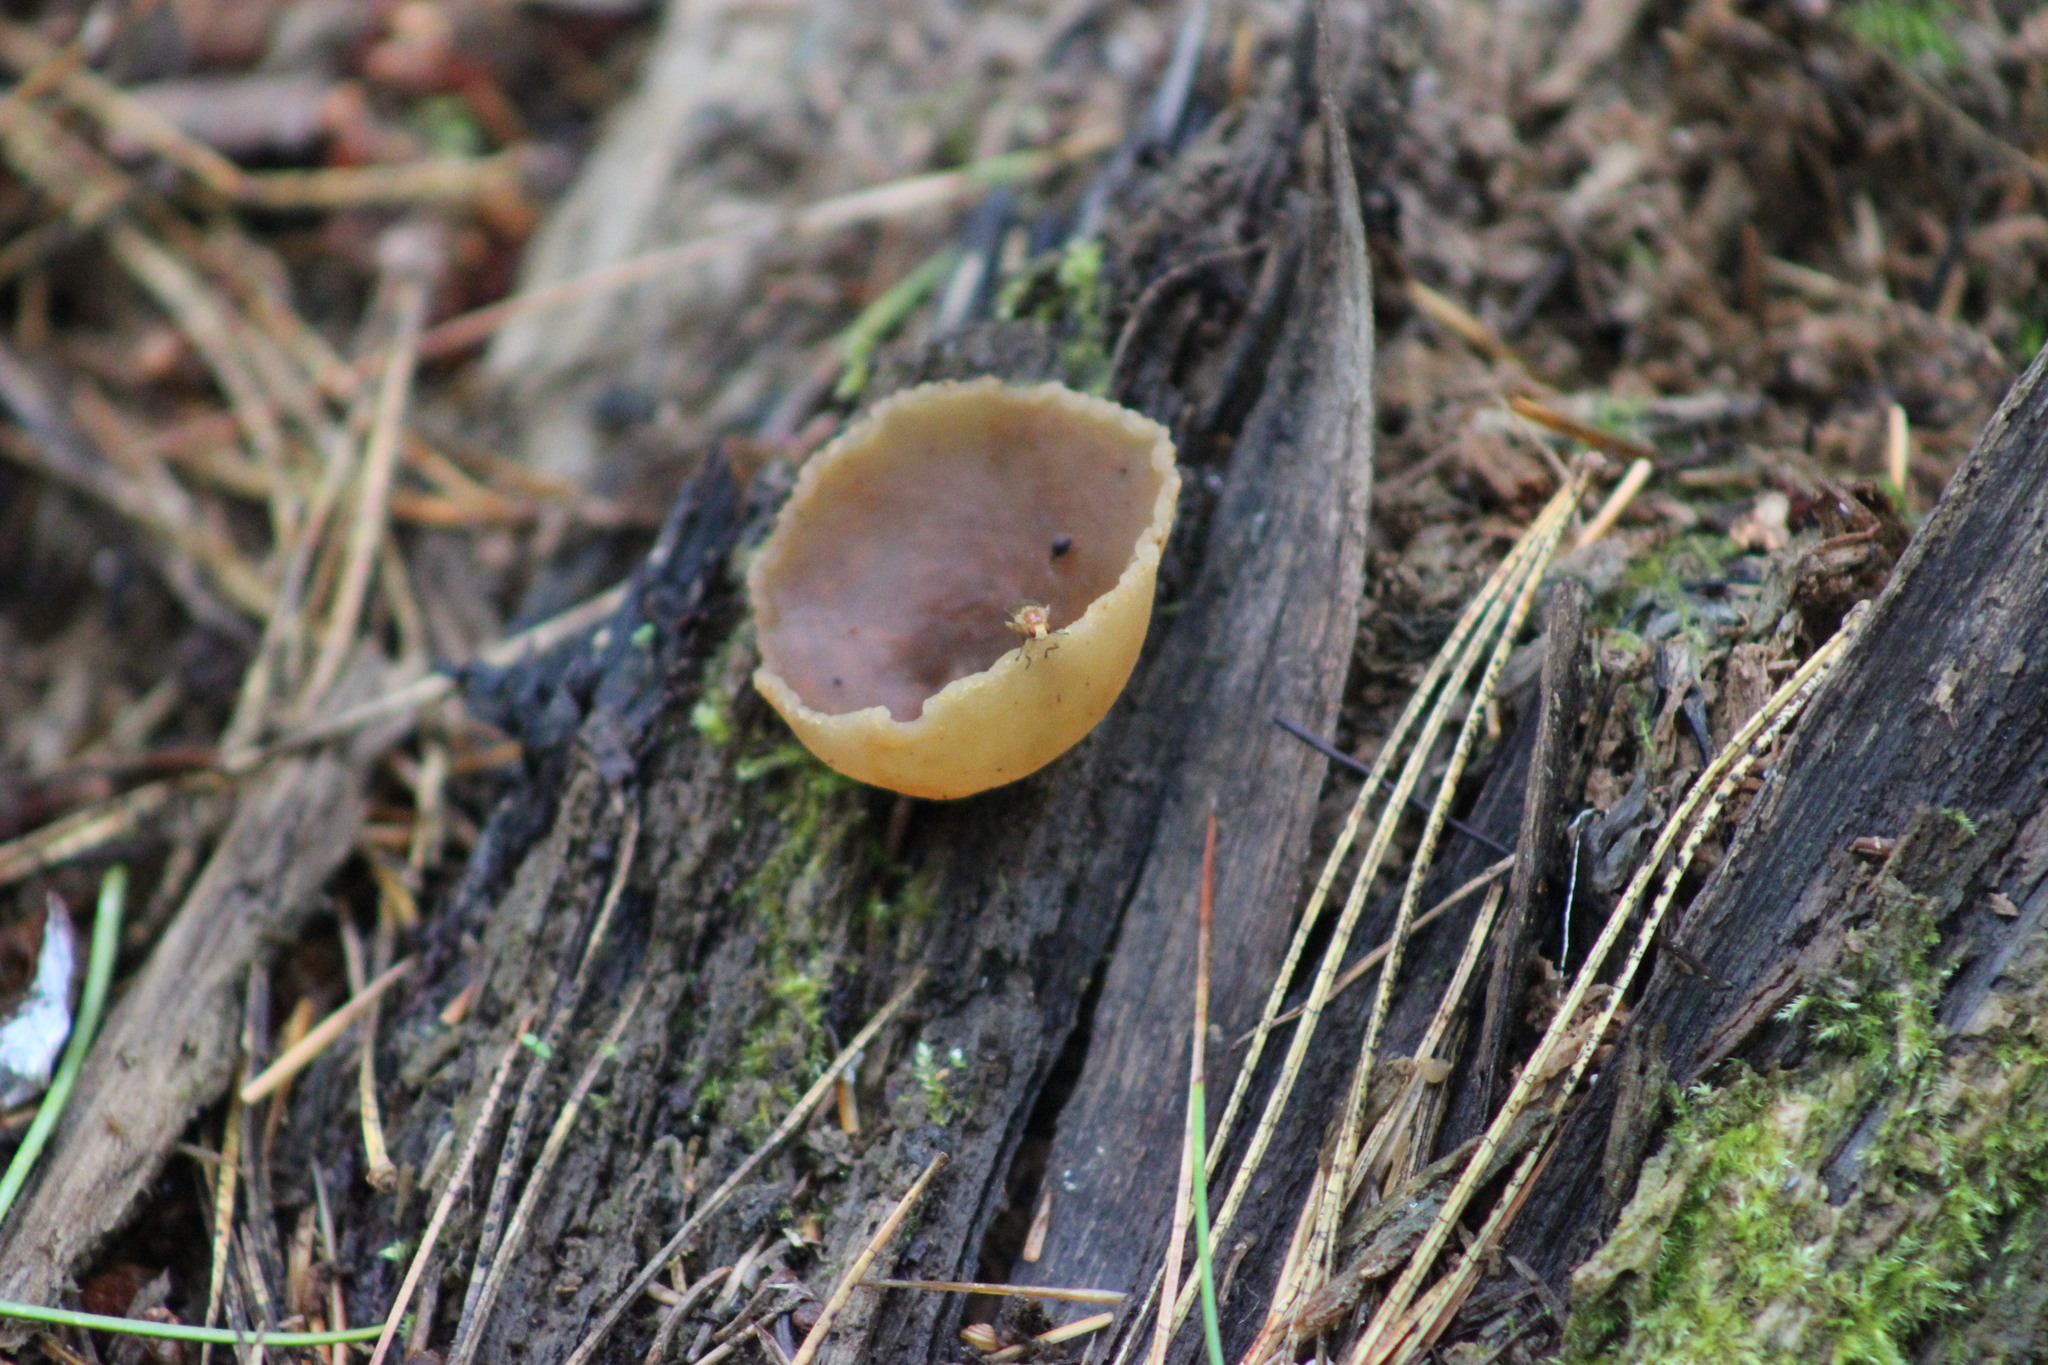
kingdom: Fungi
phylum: Ascomycota
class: Pezizomycetes
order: Pezizales
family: Pezizaceae
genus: Peziza
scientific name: Peziza varia
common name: Layered cup
